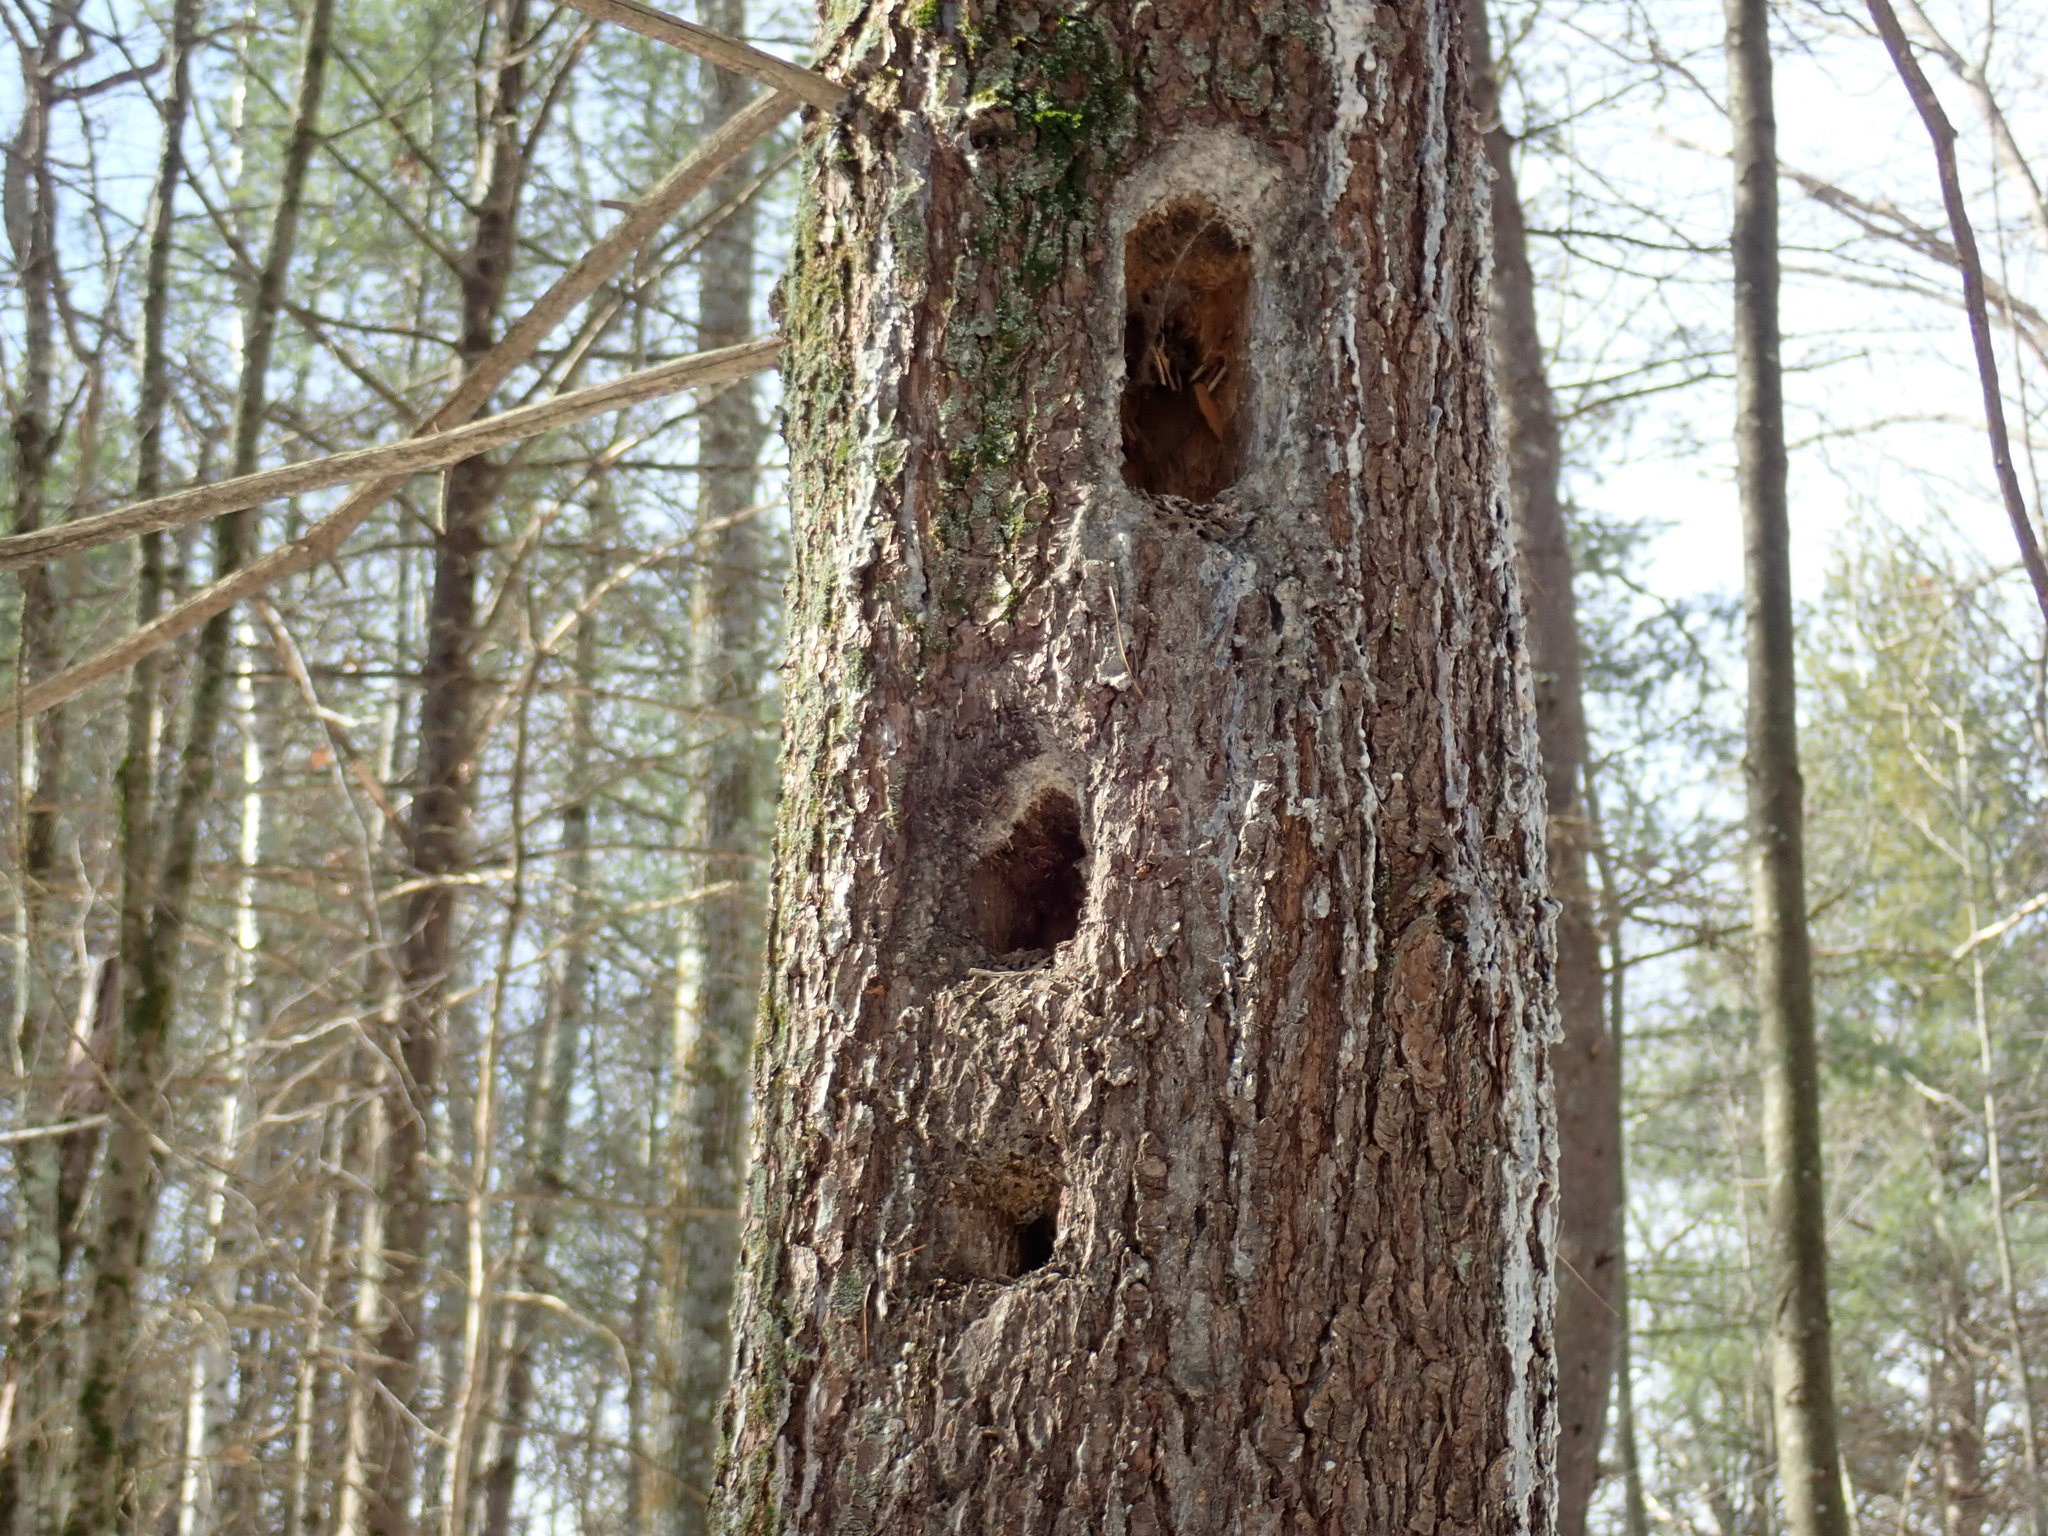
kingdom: Animalia
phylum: Chordata
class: Aves
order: Piciformes
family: Picidae
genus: Dryocopus
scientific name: Dryocopus pileatus
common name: Pileated woodpecker
